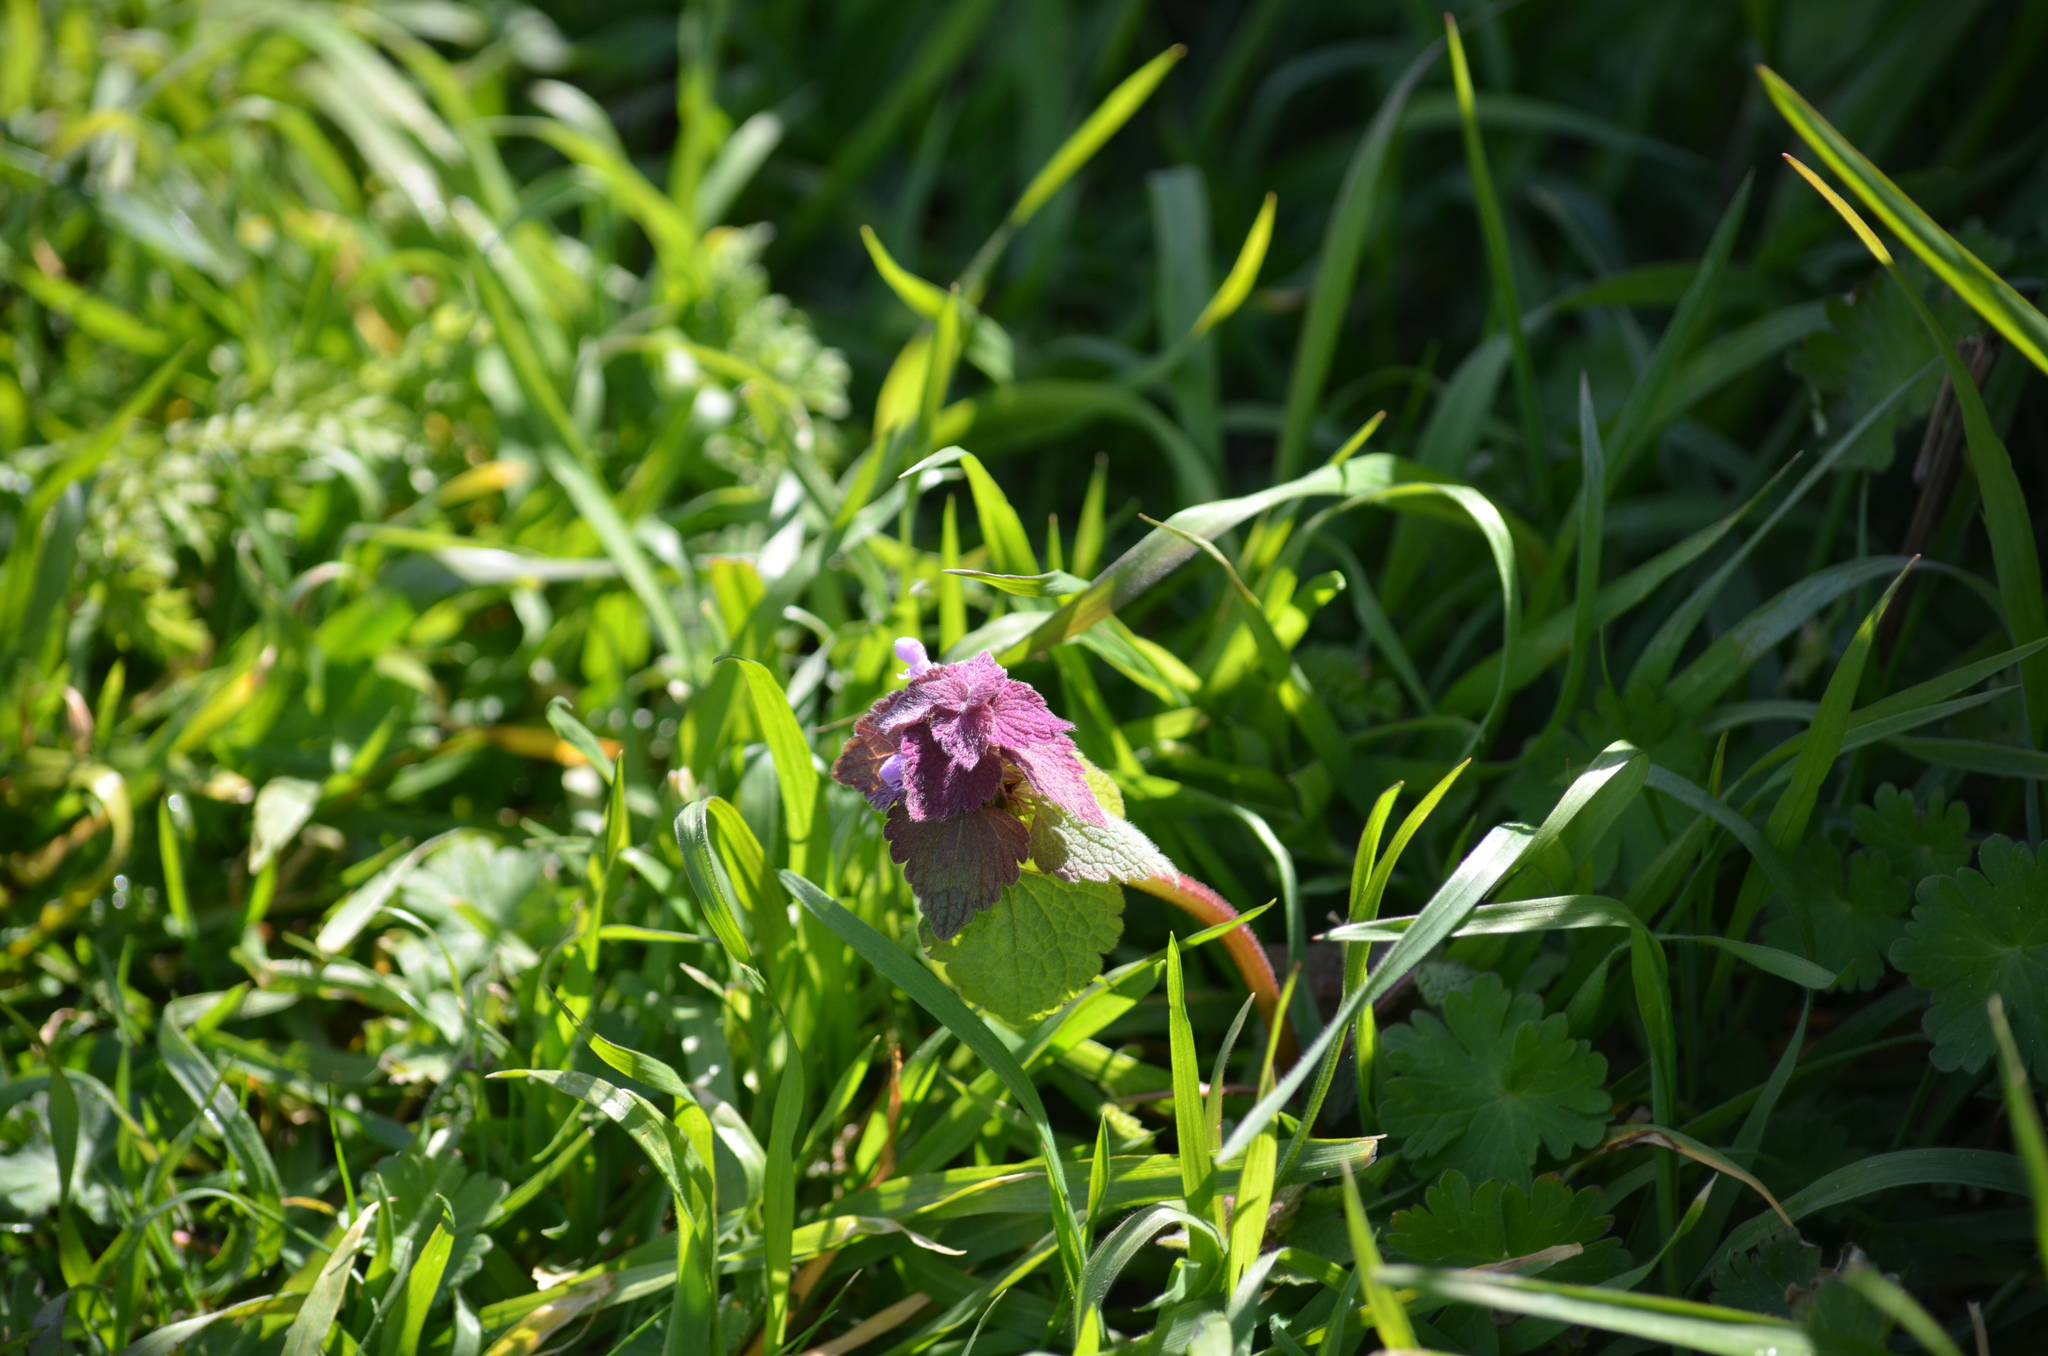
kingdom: Plantae
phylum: Tracheophyta
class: Magnoliopsida
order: Lamiales
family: Lamiaceae
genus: Lamium
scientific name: Lamium purpureum
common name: Red dead-nettle
